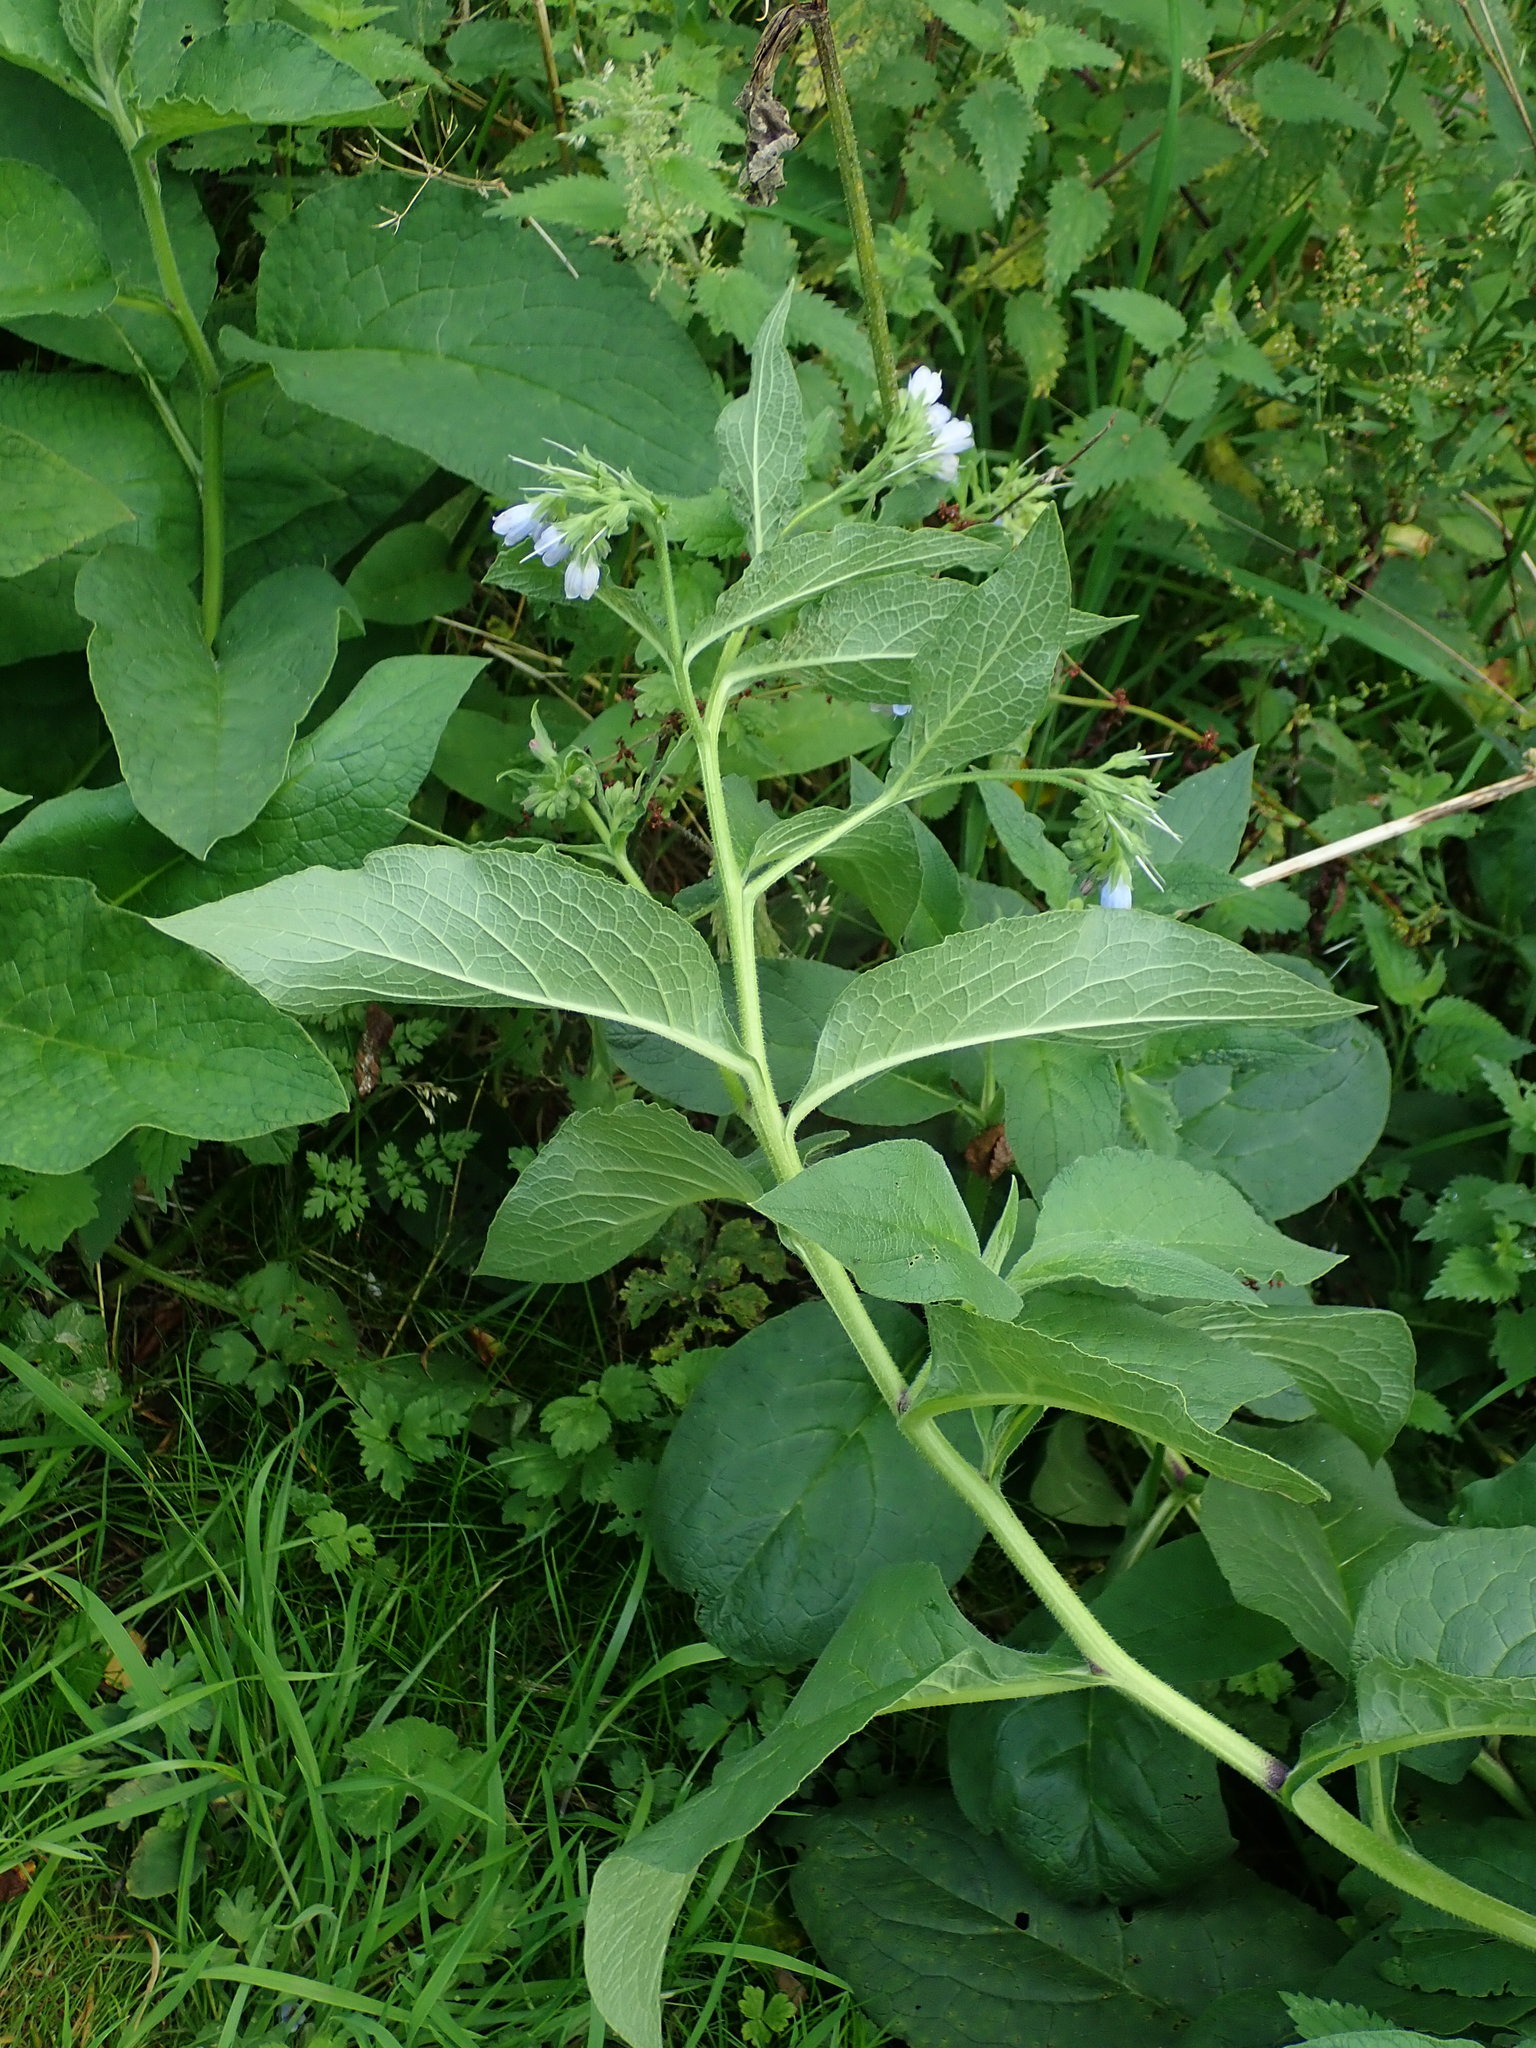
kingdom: Plantae
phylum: Tracheophyta
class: Magnoliopsida
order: Boraginales
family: Boraginaceae
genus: Symphytum
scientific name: Symphytum uplandicum
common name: Russian comfrey
